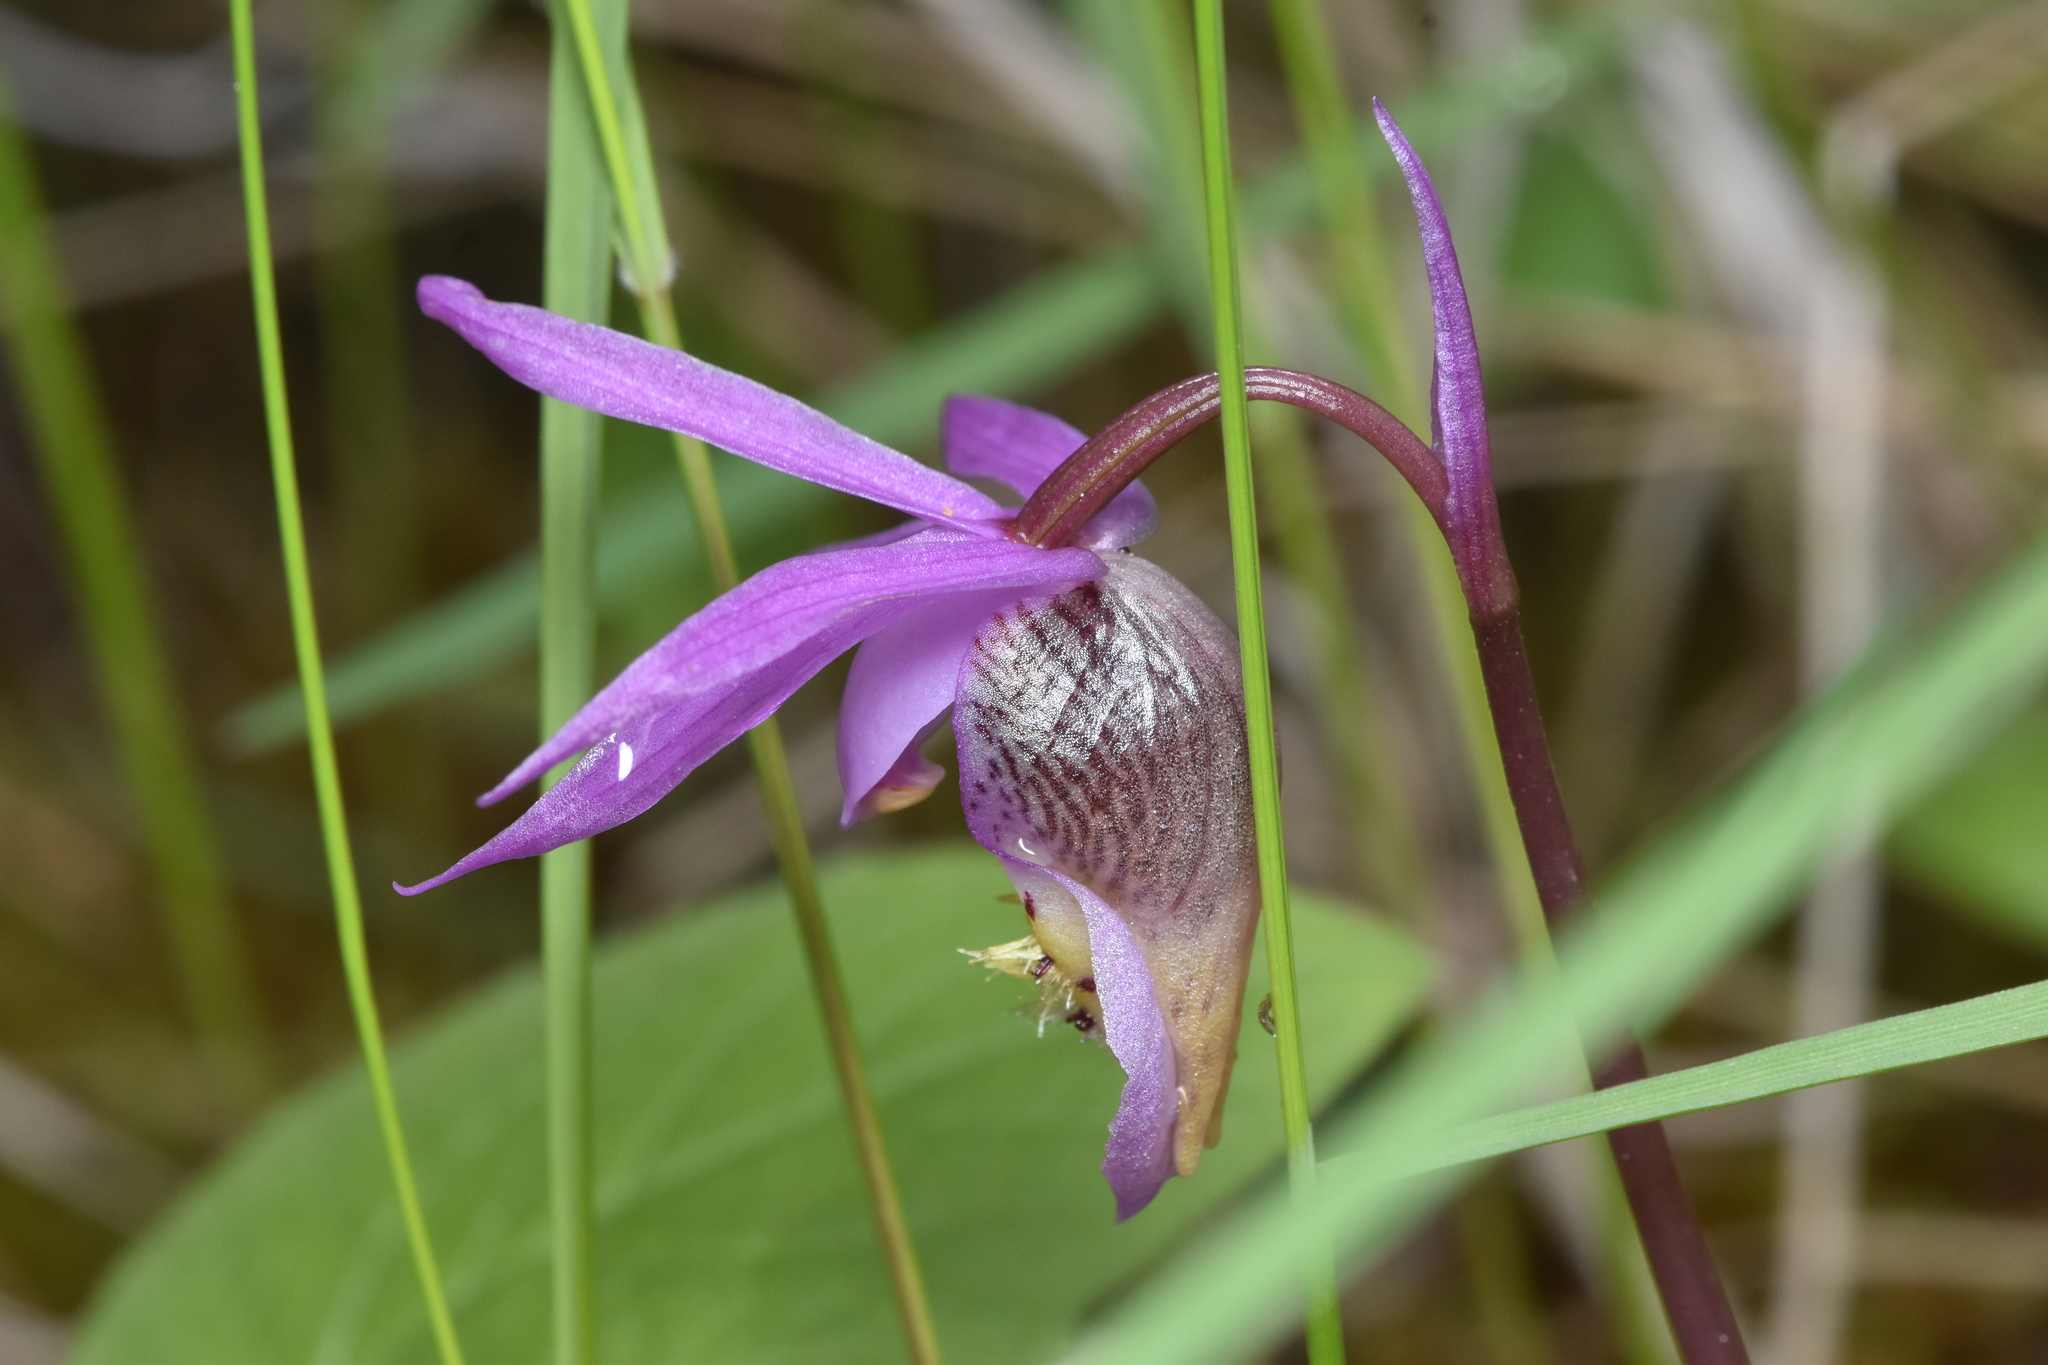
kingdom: Plantae
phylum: Tracheophyta
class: Liliopsida
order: Asparagales
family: Orchidaceae
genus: Calypso
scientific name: Calypso bulbosa
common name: Calypso
